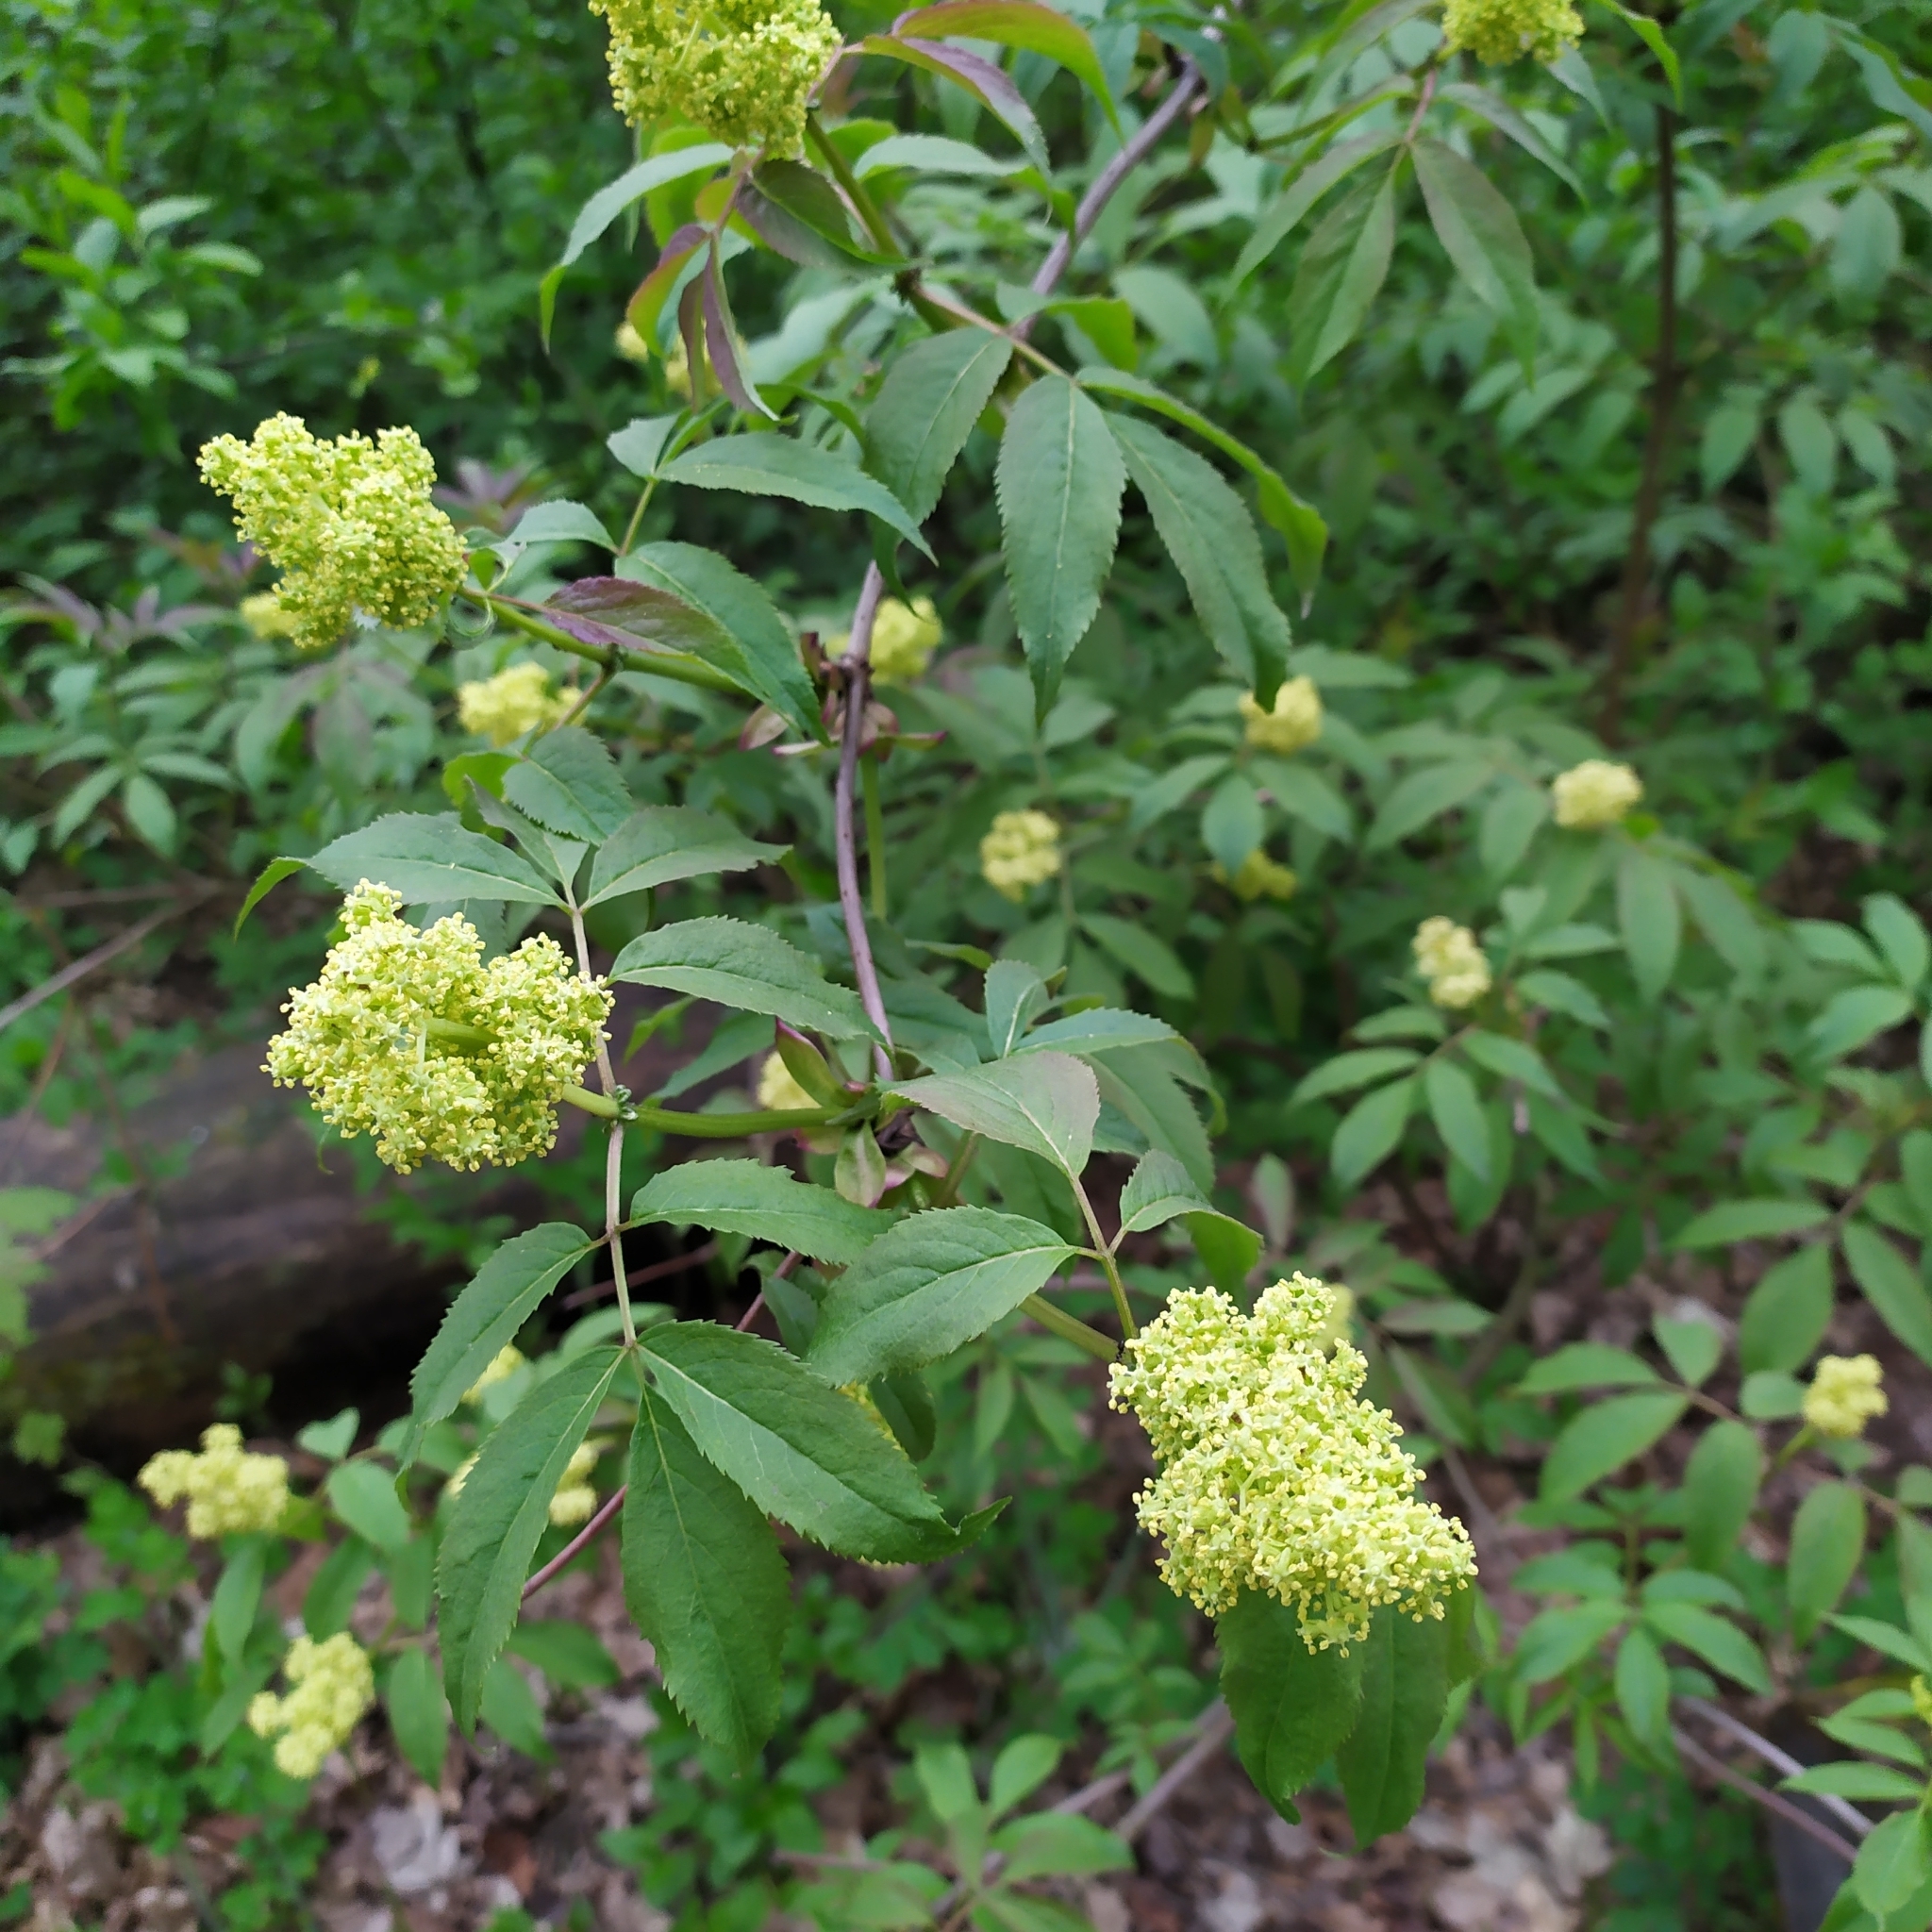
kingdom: Plantae
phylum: Tracheophyta
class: Magnoliopsida
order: Dipsacales
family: Viburnaceae
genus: Sambucus
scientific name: Sambucus racemosa
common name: Red-berried elder
